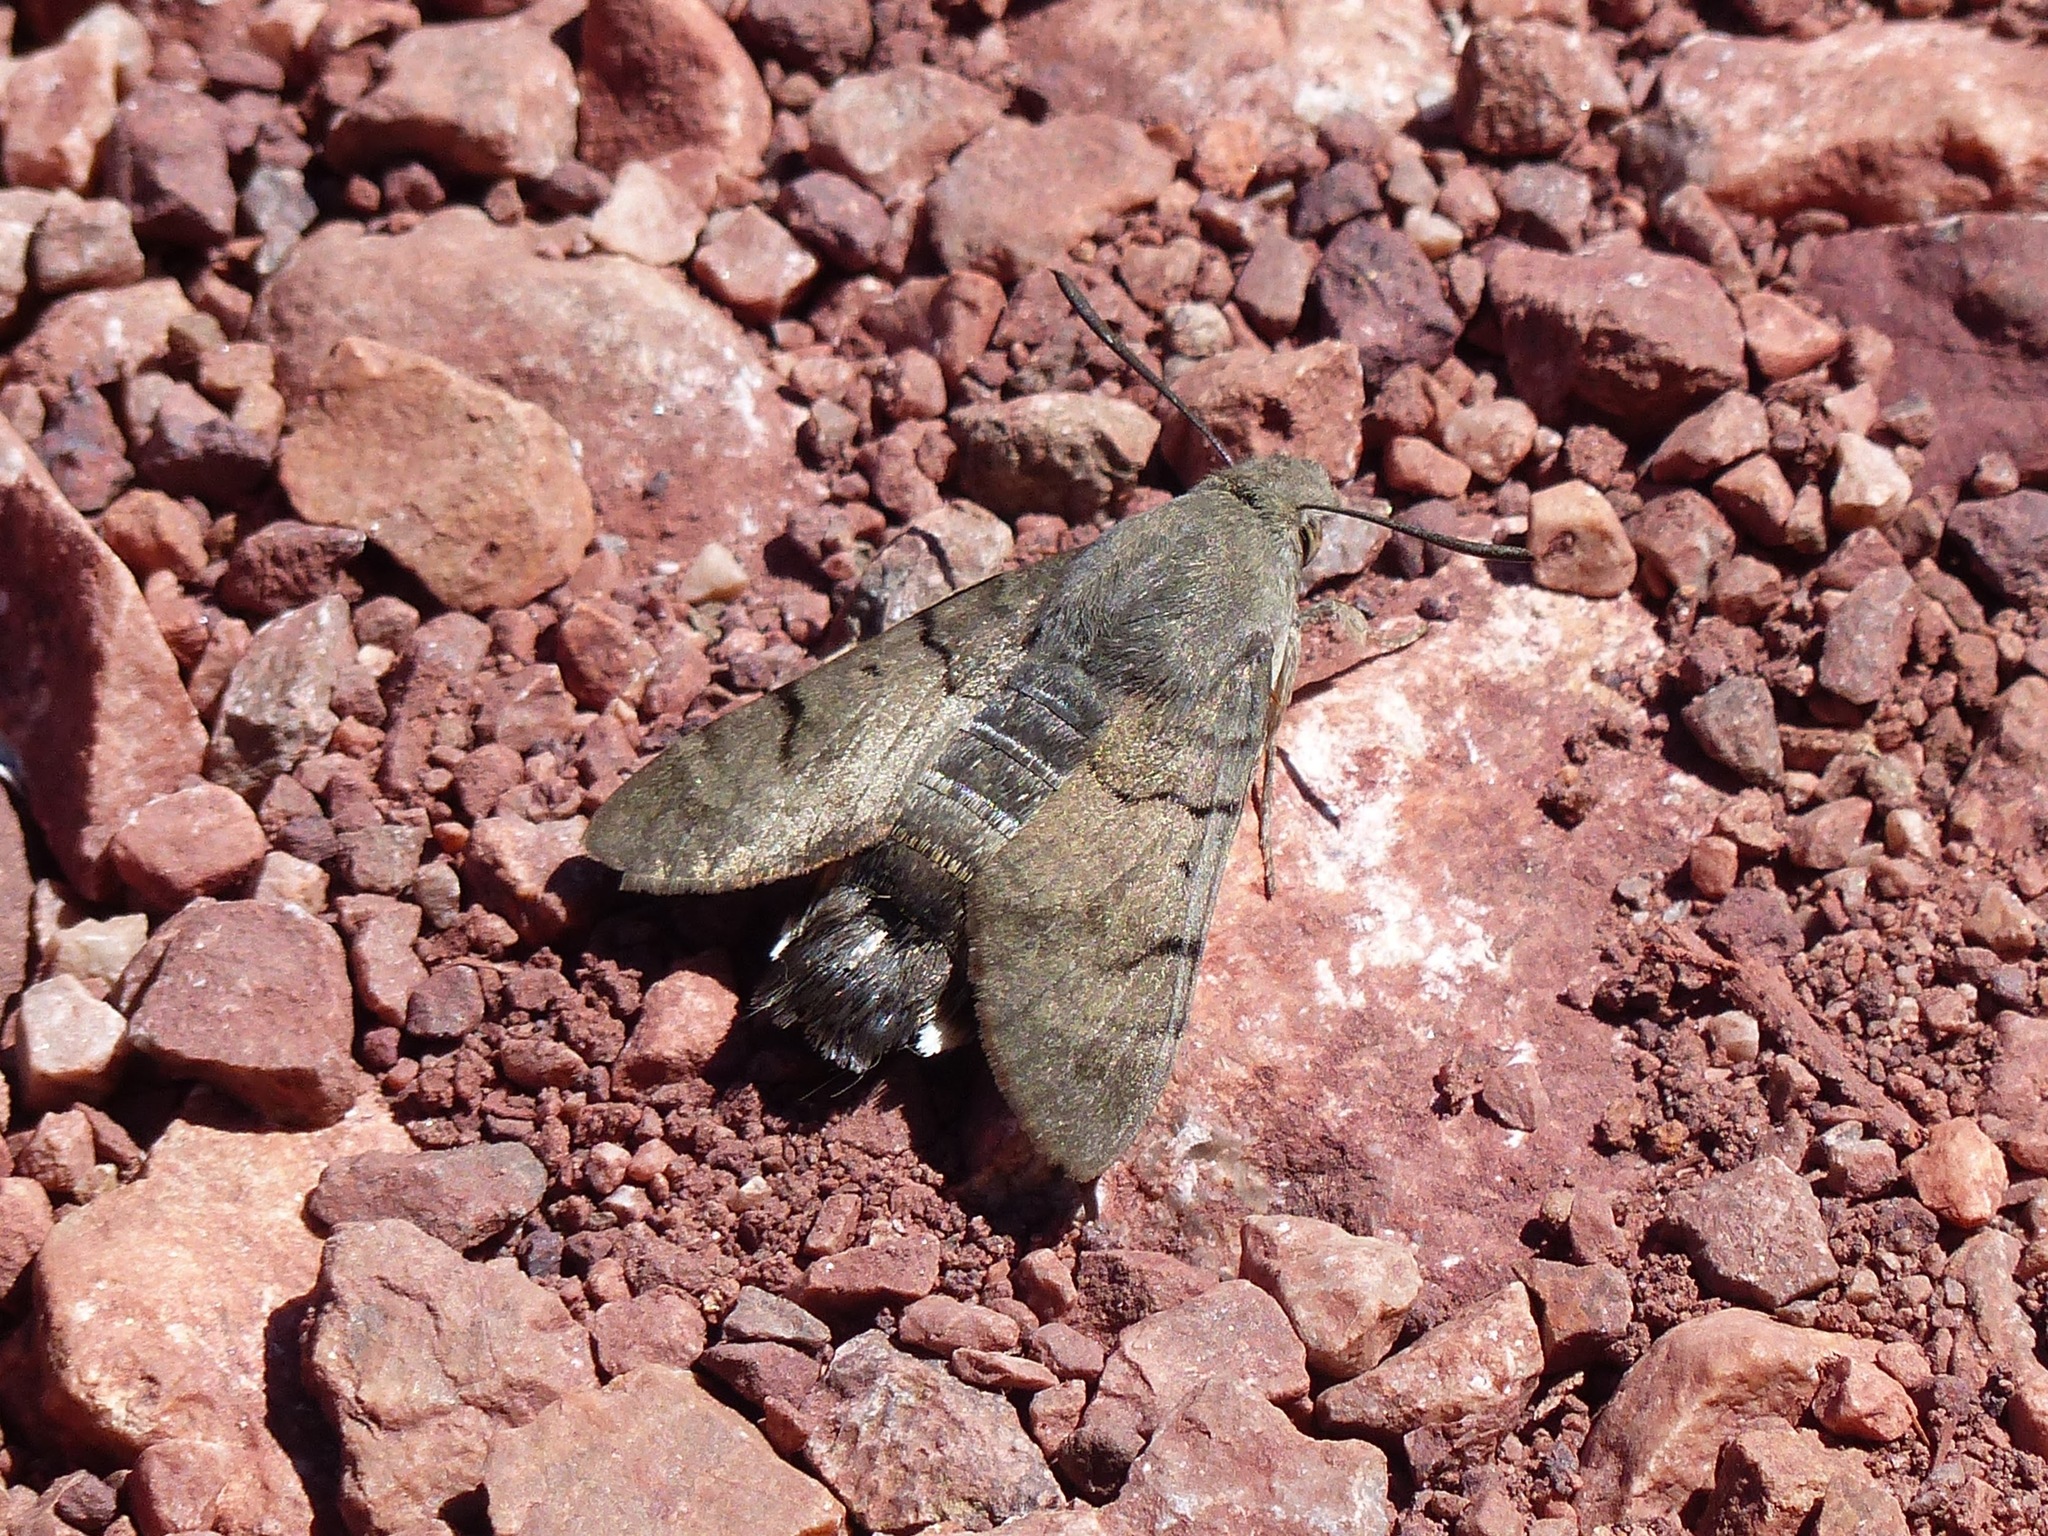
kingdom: Animalia
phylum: Arthropoda
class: Insecta
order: Lepidoptera
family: Sphingidae
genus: Macroglossum
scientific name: Macroglossum stellatarum
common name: Humming-bird hawk-moth
